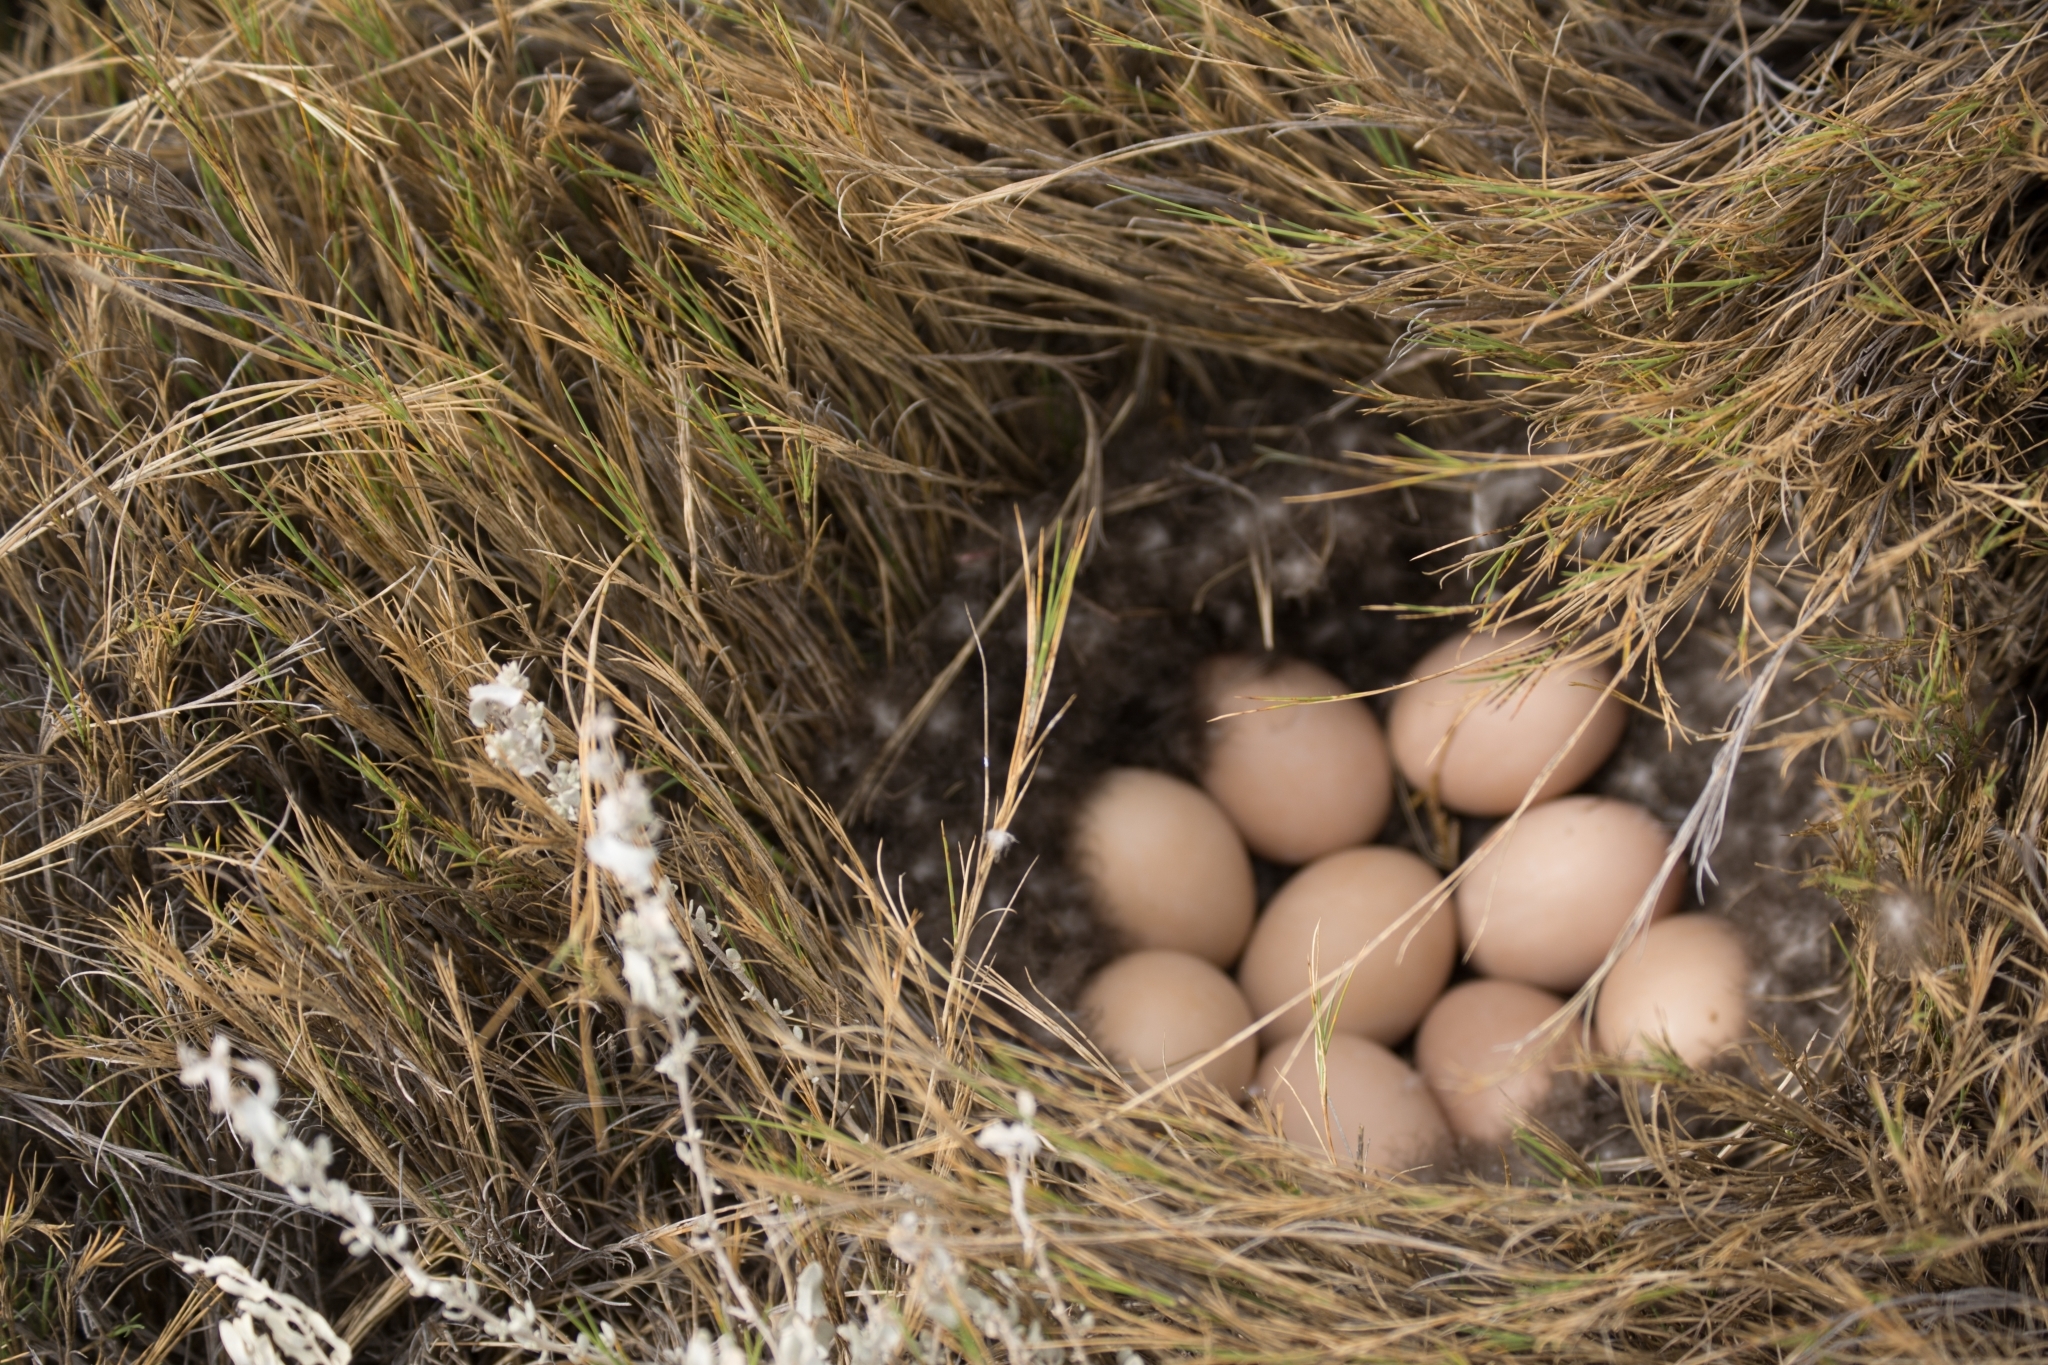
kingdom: Animalia
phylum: Chordata
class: Aves
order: Anseriformes
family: Anatidae
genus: Anas
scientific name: Anas georgica
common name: Yellow-billed pintail
